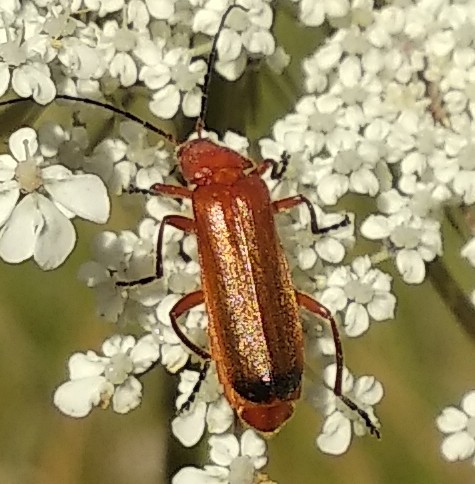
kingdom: Animalia
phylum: Arthropoda
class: Insecta
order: Coleoptera
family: Cantharidae
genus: Rhagonycha
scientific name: Rhagonycha fulva
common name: Common red soldier beetle
